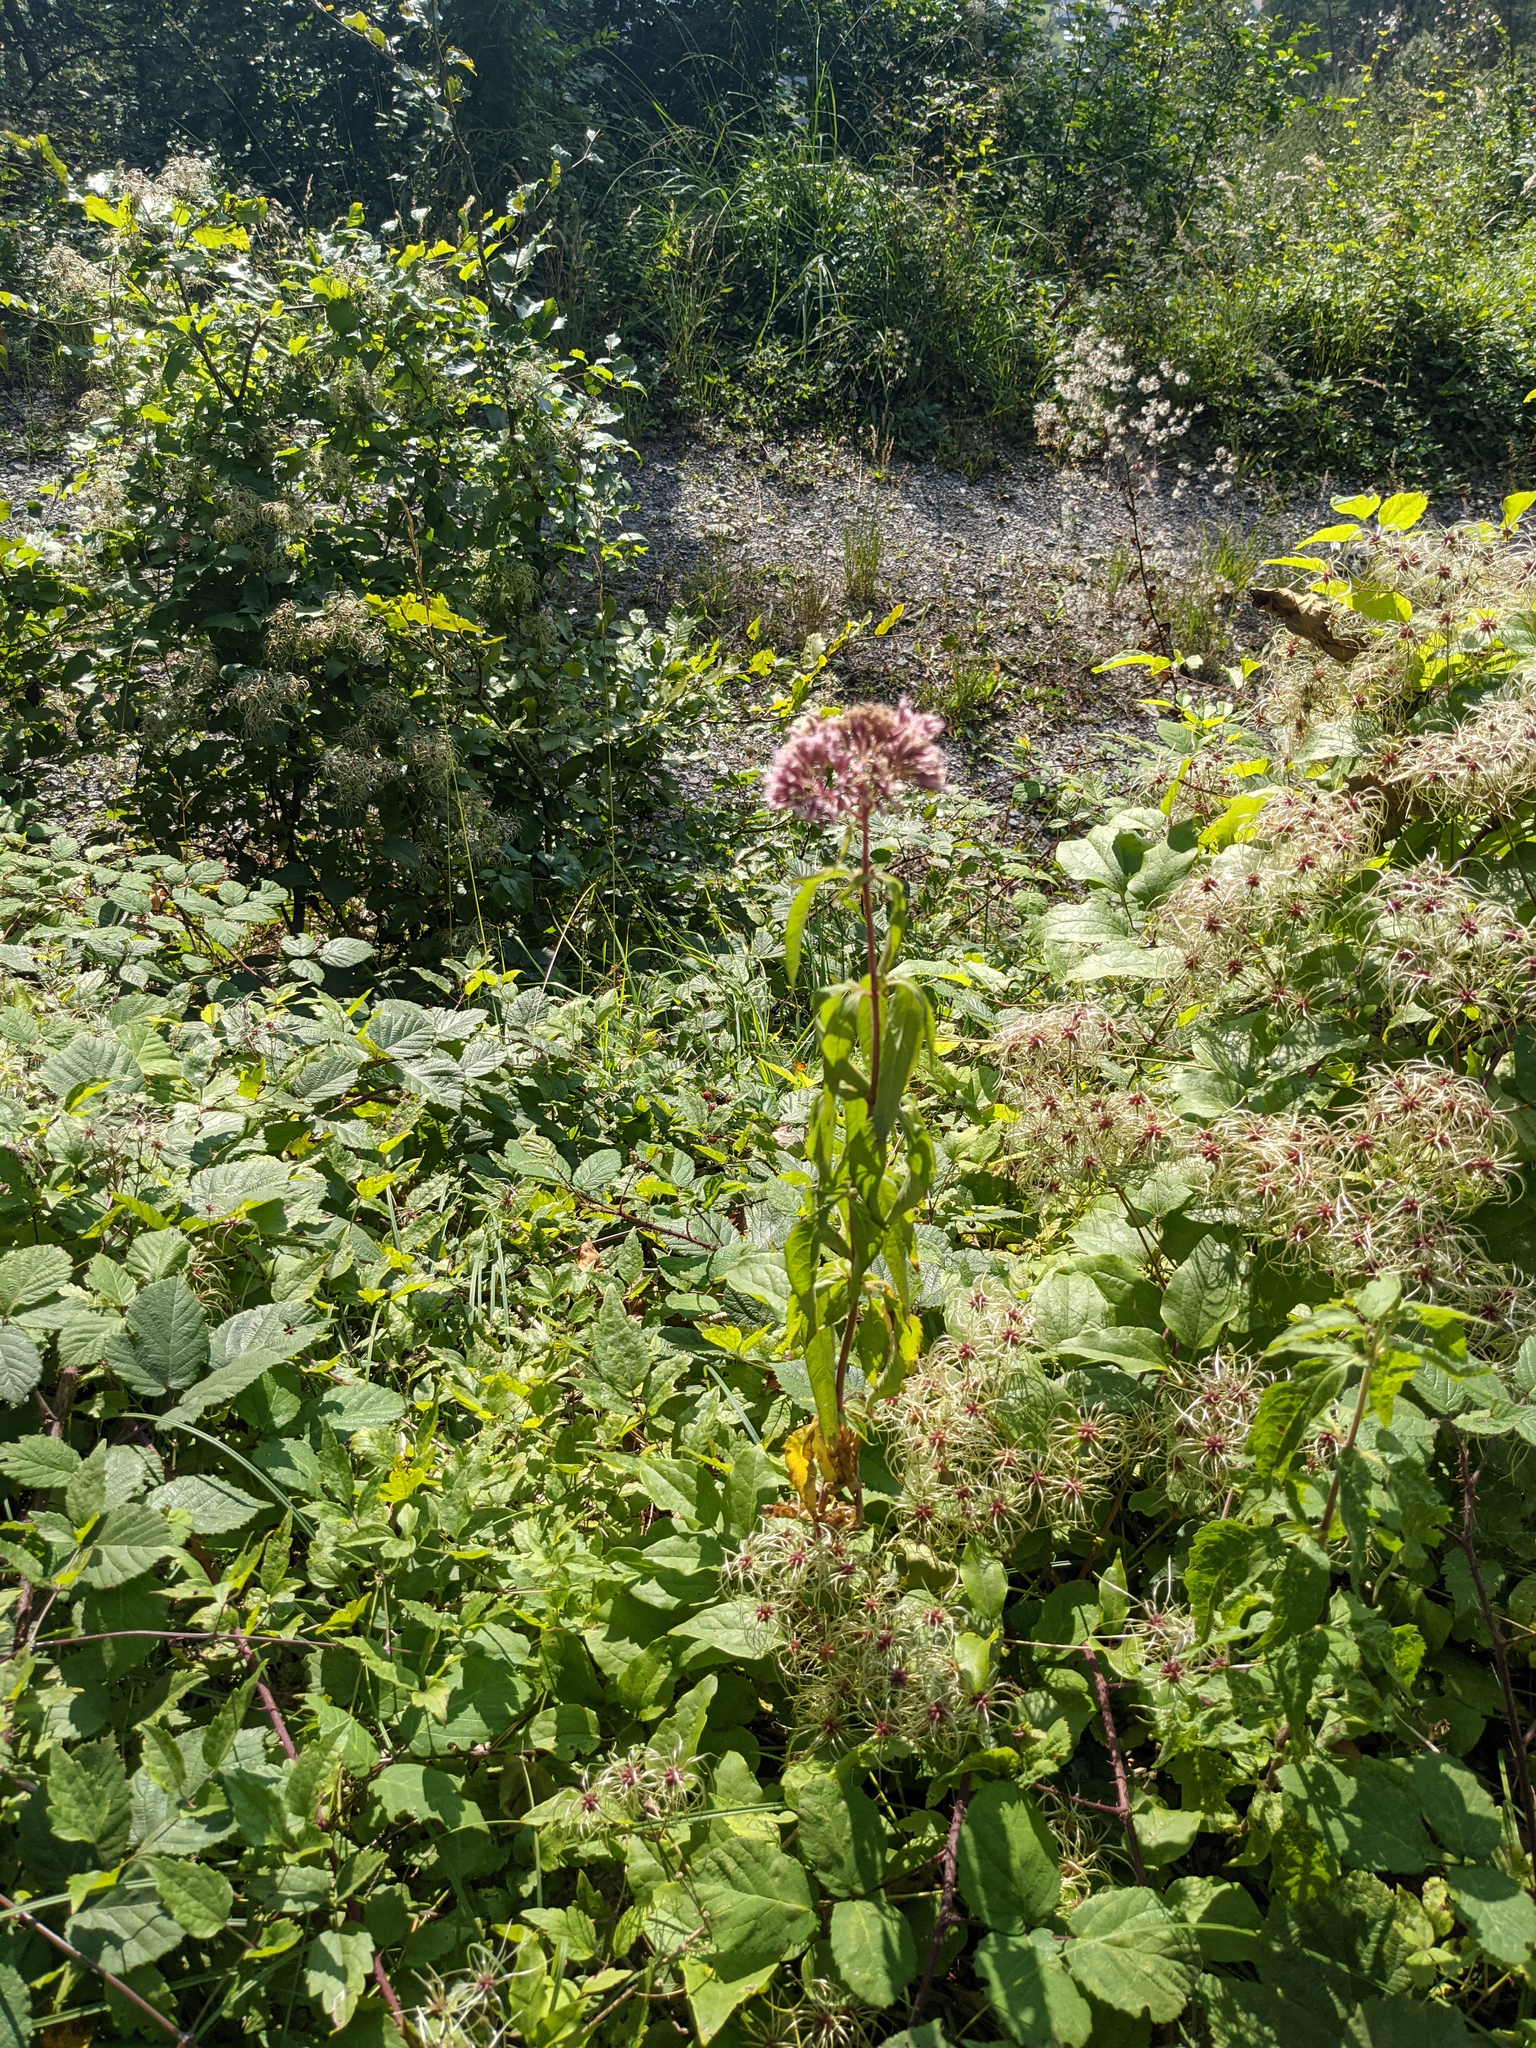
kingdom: Plantae
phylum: Tracheophyta
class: Magnoliopsida
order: Asterales
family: Asteraceae
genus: Eupatorium
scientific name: Eupatorium cannabinum
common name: Hemp-agrimony
